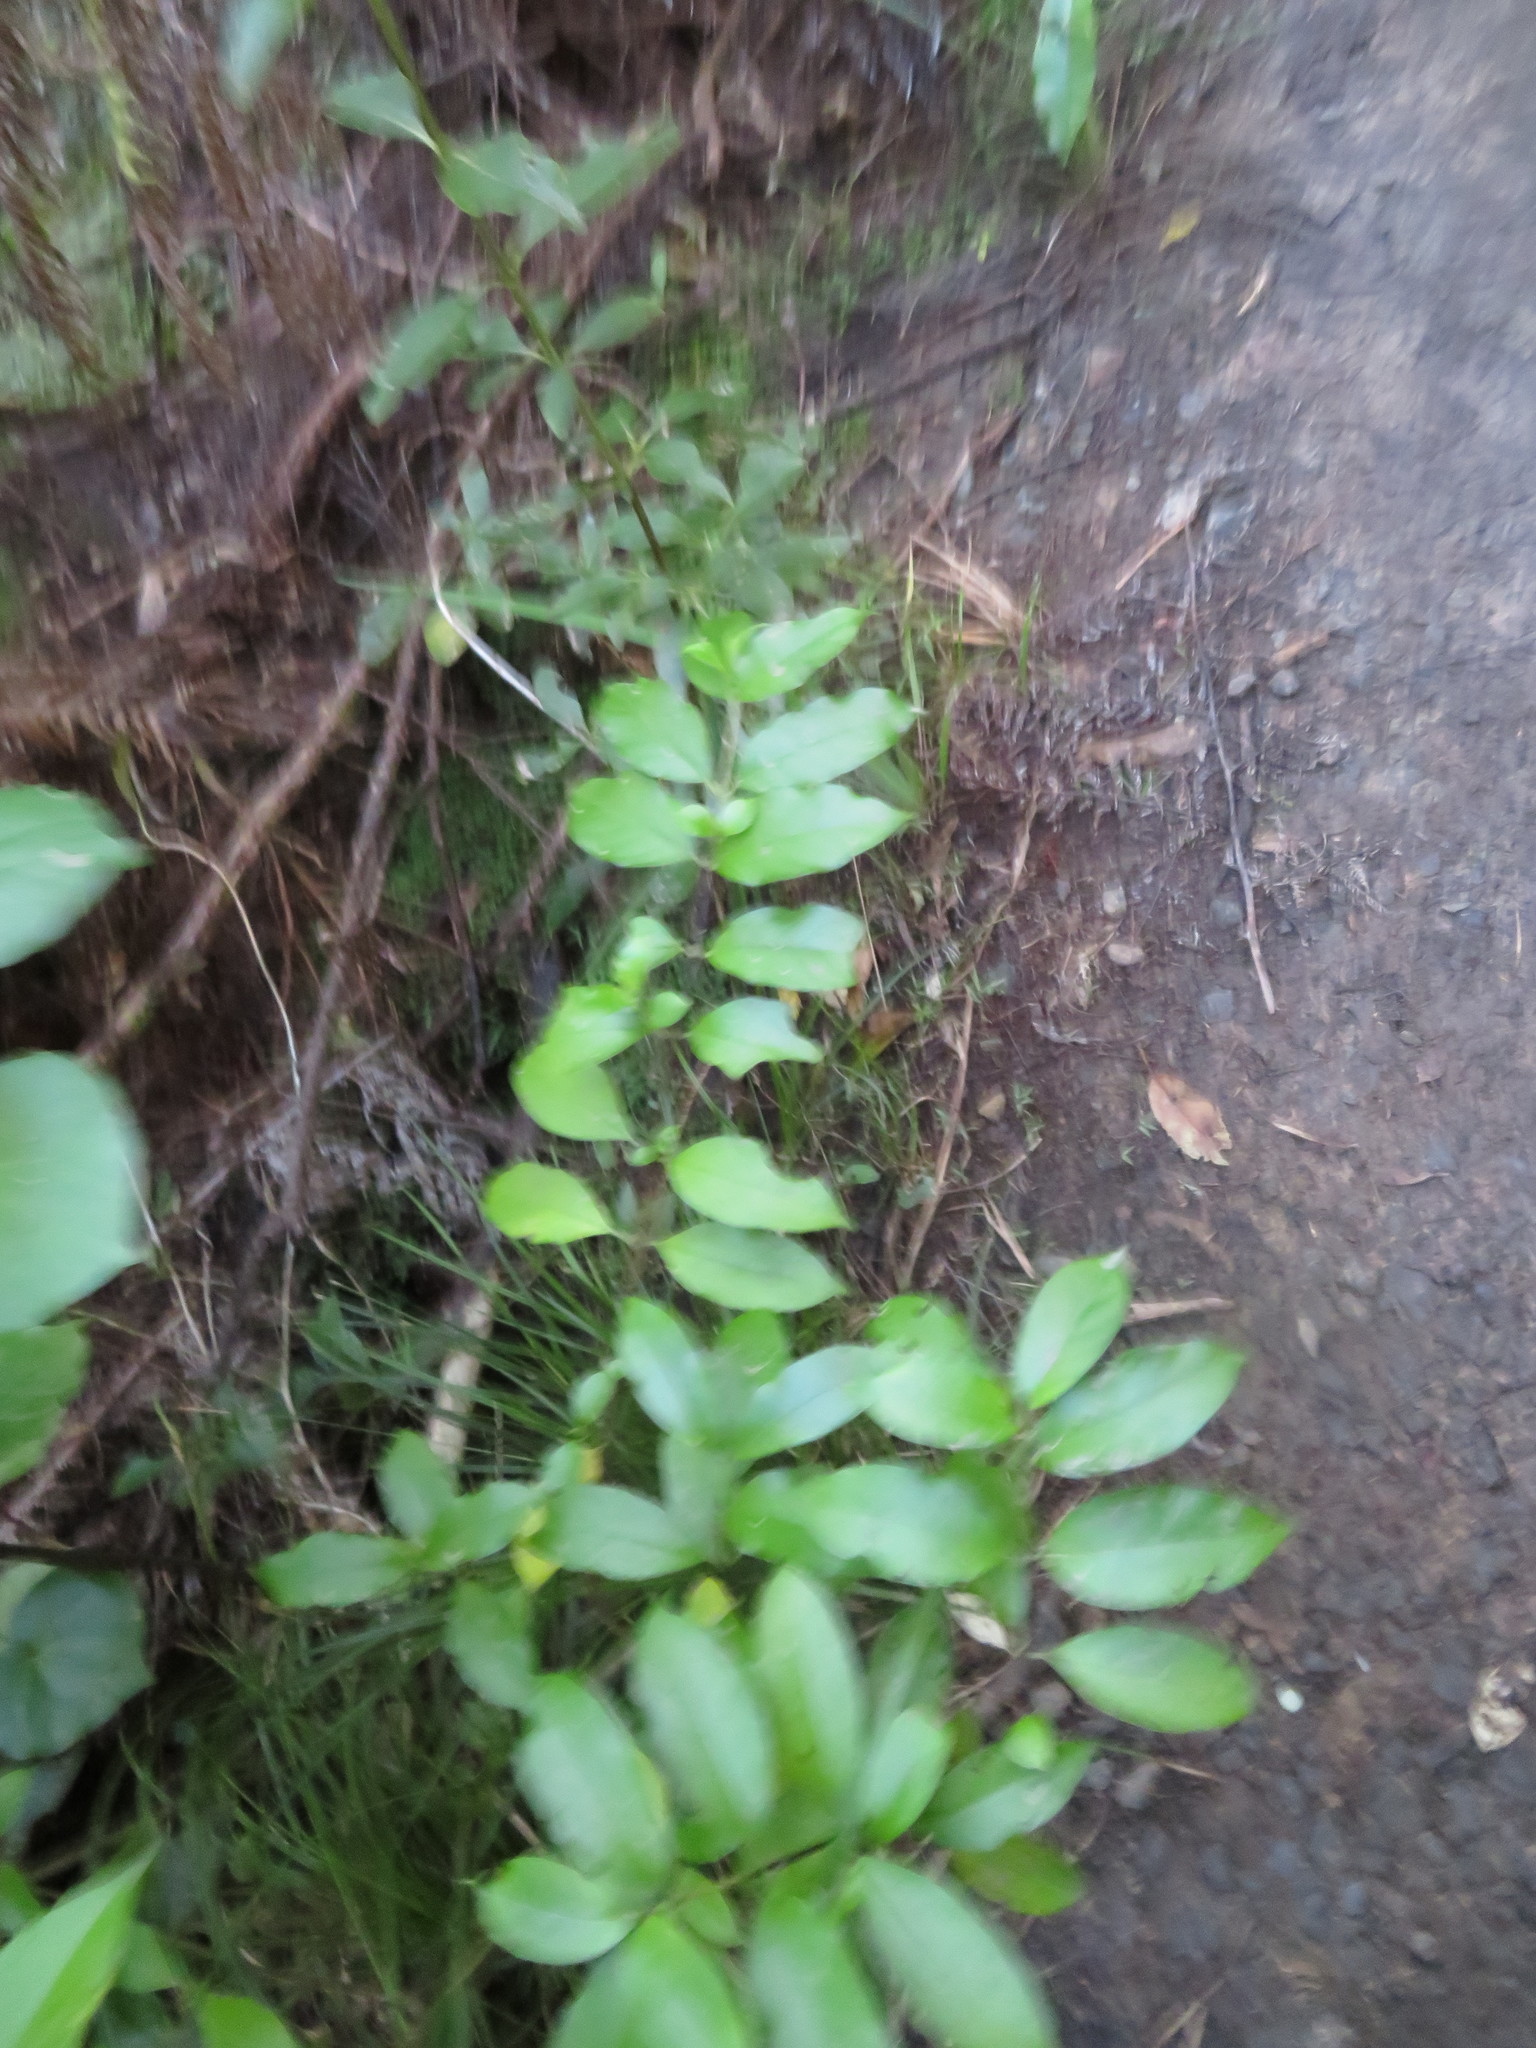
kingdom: Plantae
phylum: Tracheophyta
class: Magnoliopsida
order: Gentianales
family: Loganiaceae
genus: Geniostoma
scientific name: Geniostoma ligustrifolium
